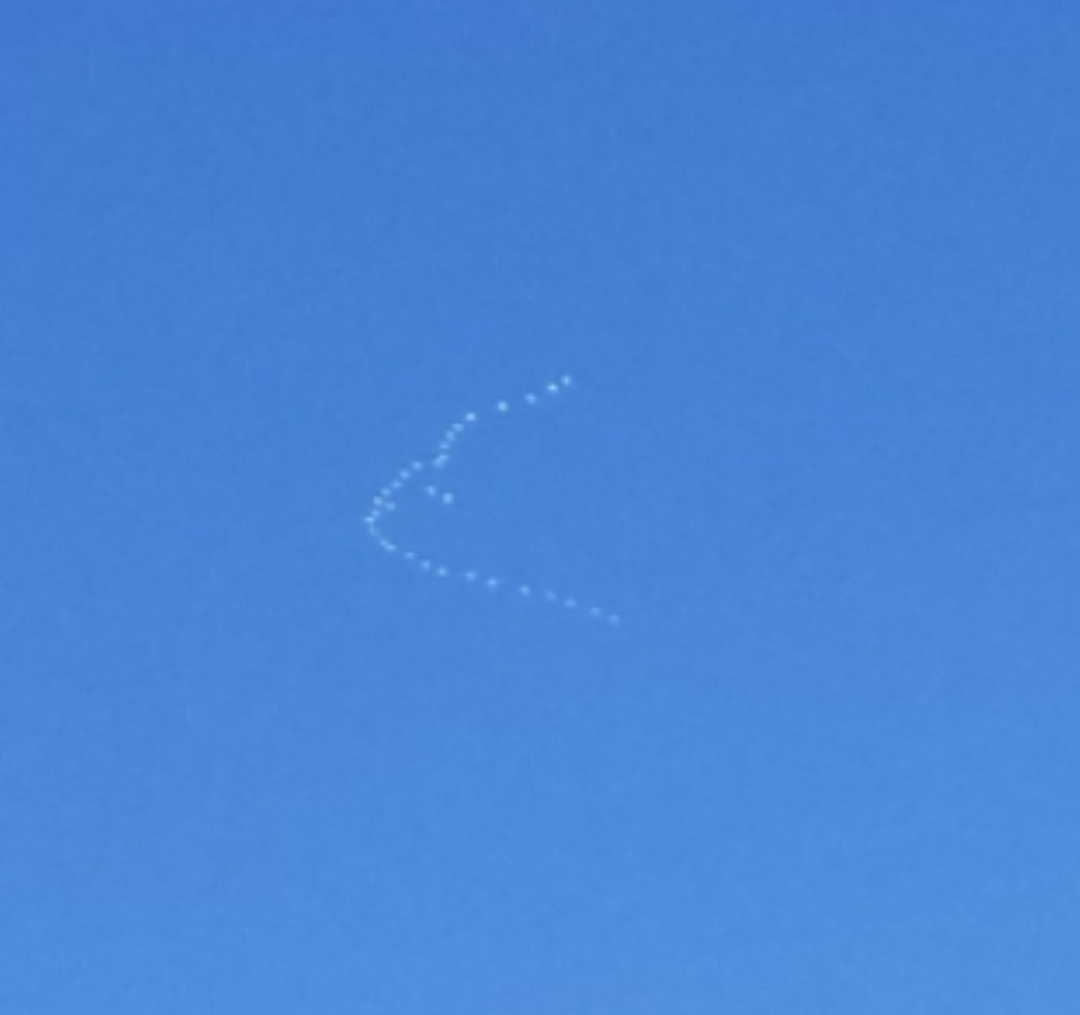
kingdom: Animalia
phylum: Chordata
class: Aves
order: Anseriformes
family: Anatidae
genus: Anser
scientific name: Anser caerulescens
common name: Snow goose
